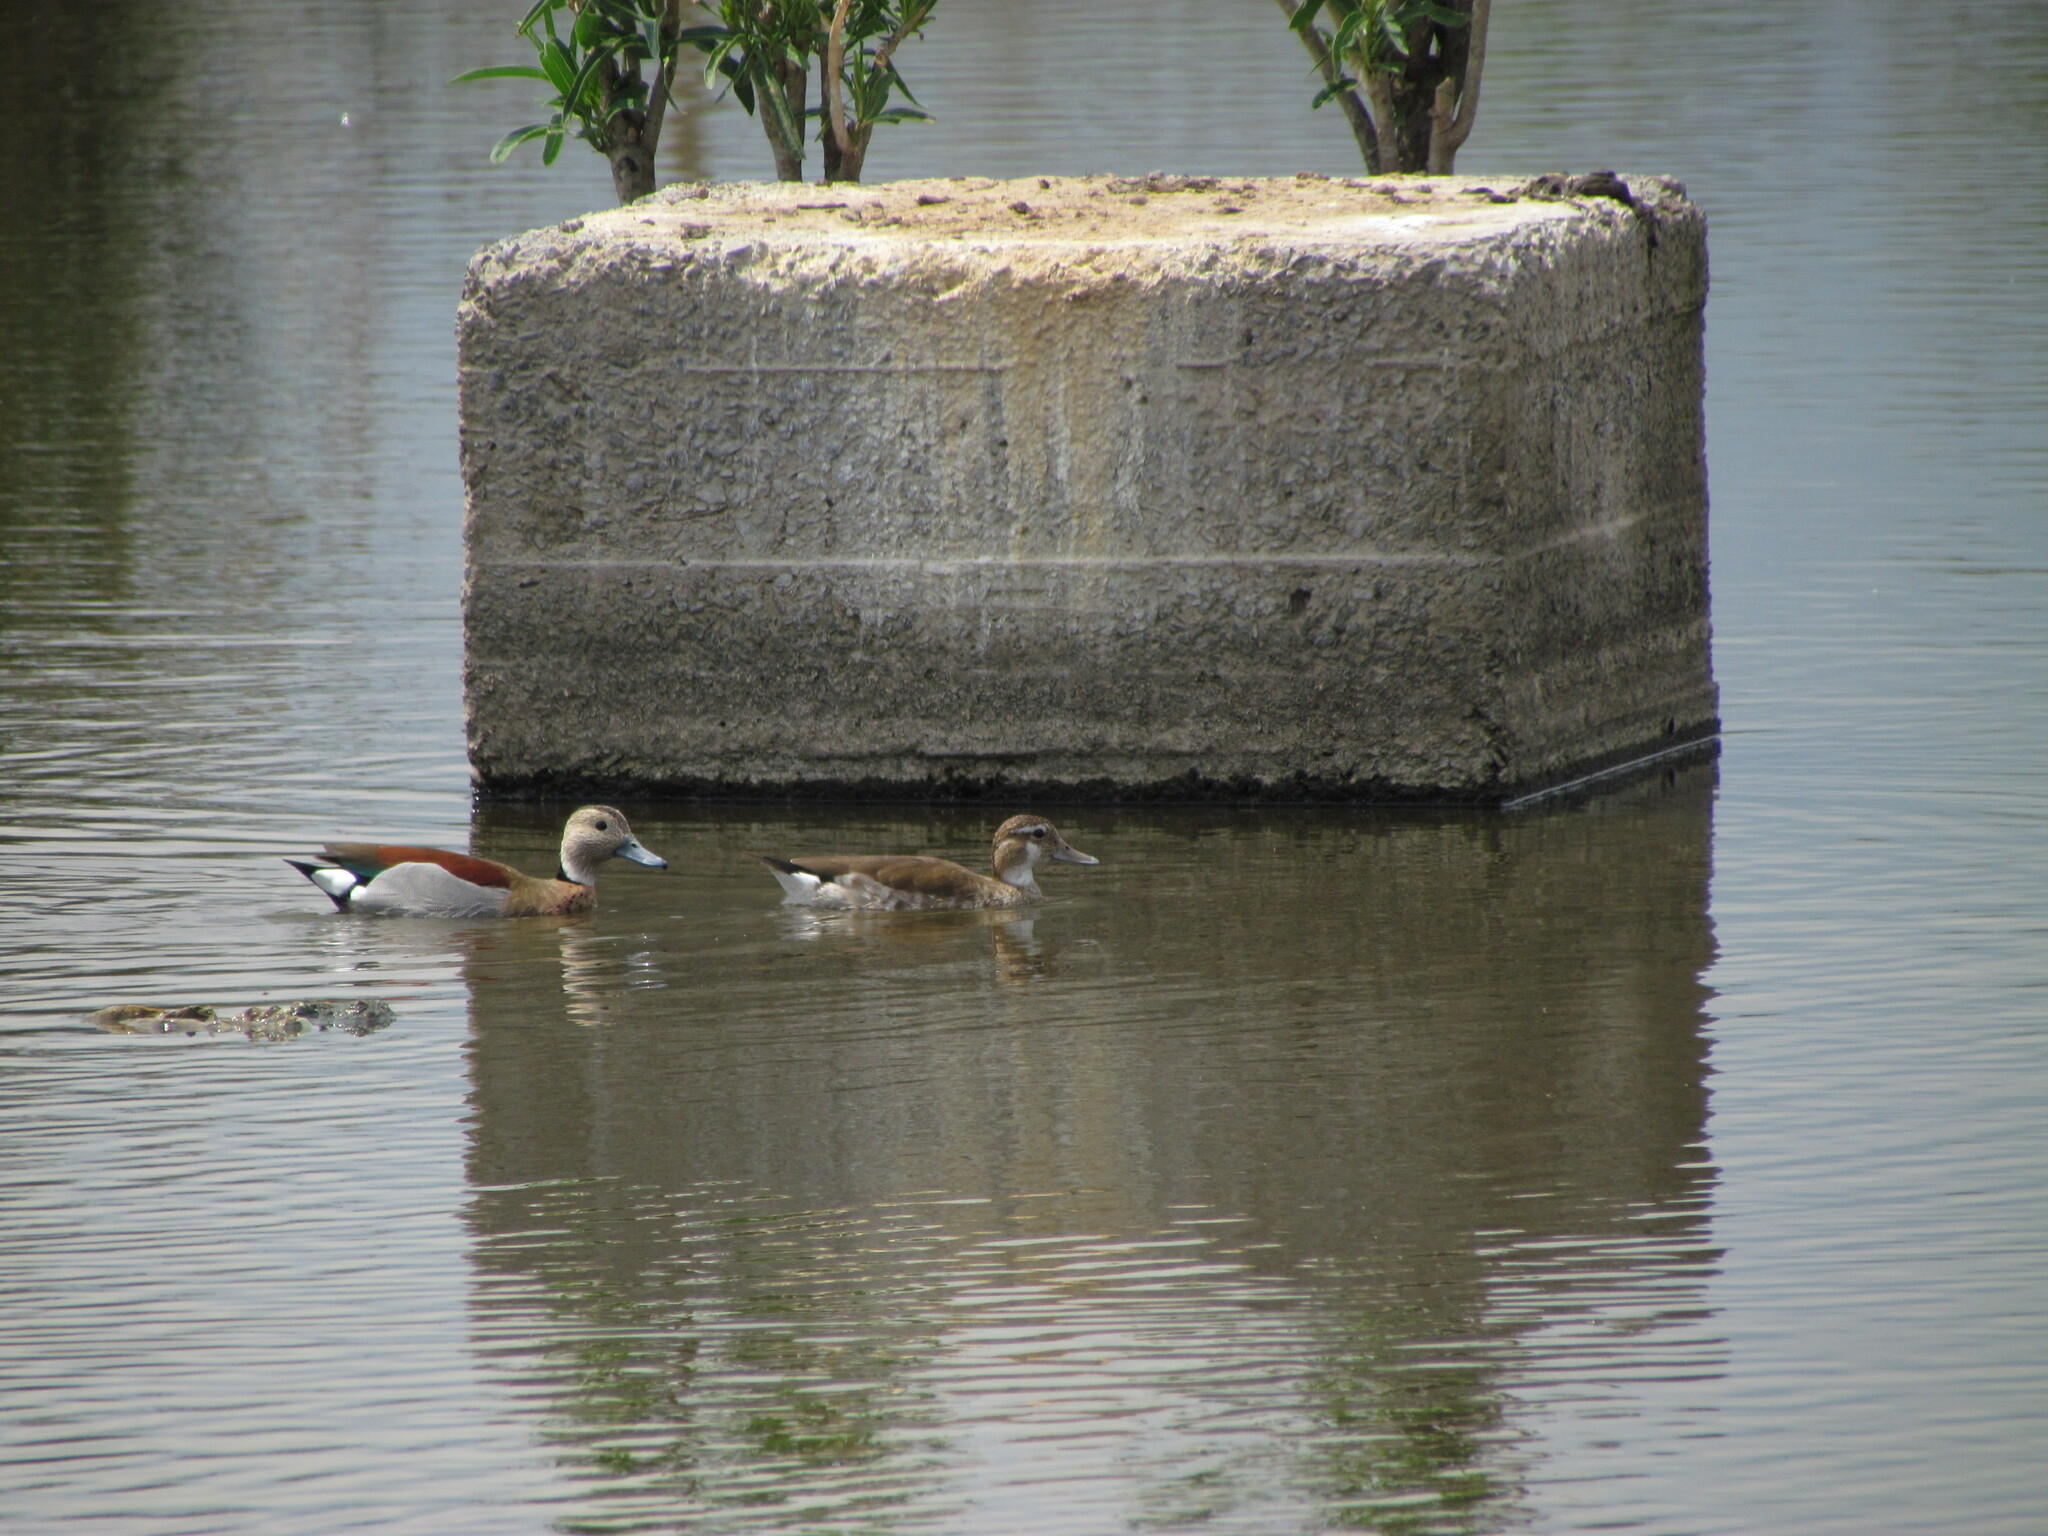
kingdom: Animalia
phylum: Chordata
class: Aves
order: Anseriformes
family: Anatidae
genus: Callonetta
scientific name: Callonetta leucophrys
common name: Ringed teal
